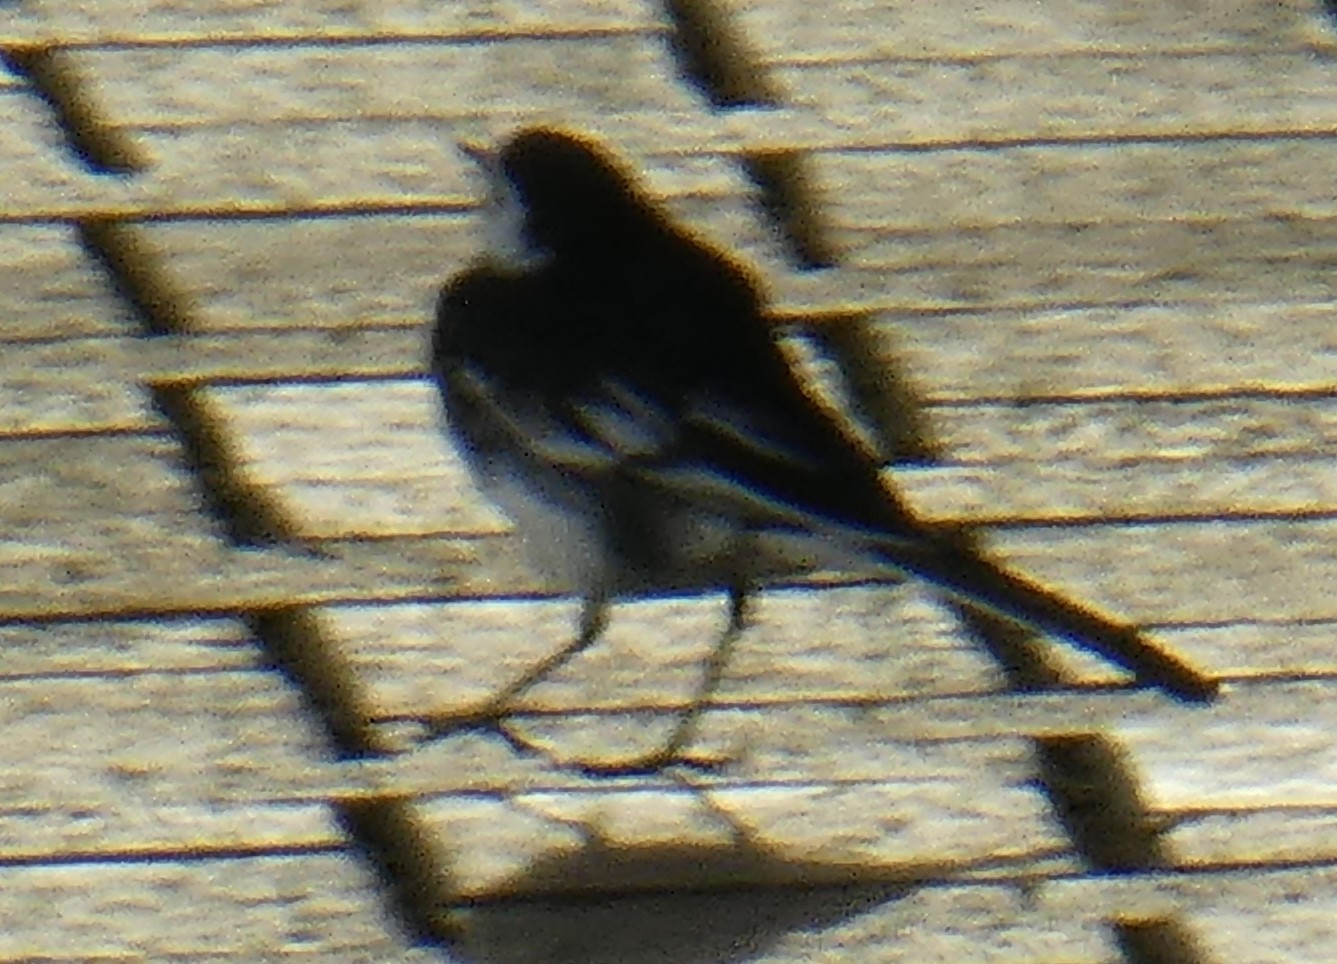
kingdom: Animalia
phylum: Chordata
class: Aves
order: Passeriformes
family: Motacillidae
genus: Motacilla
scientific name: Motacilla alba
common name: White wagtail
